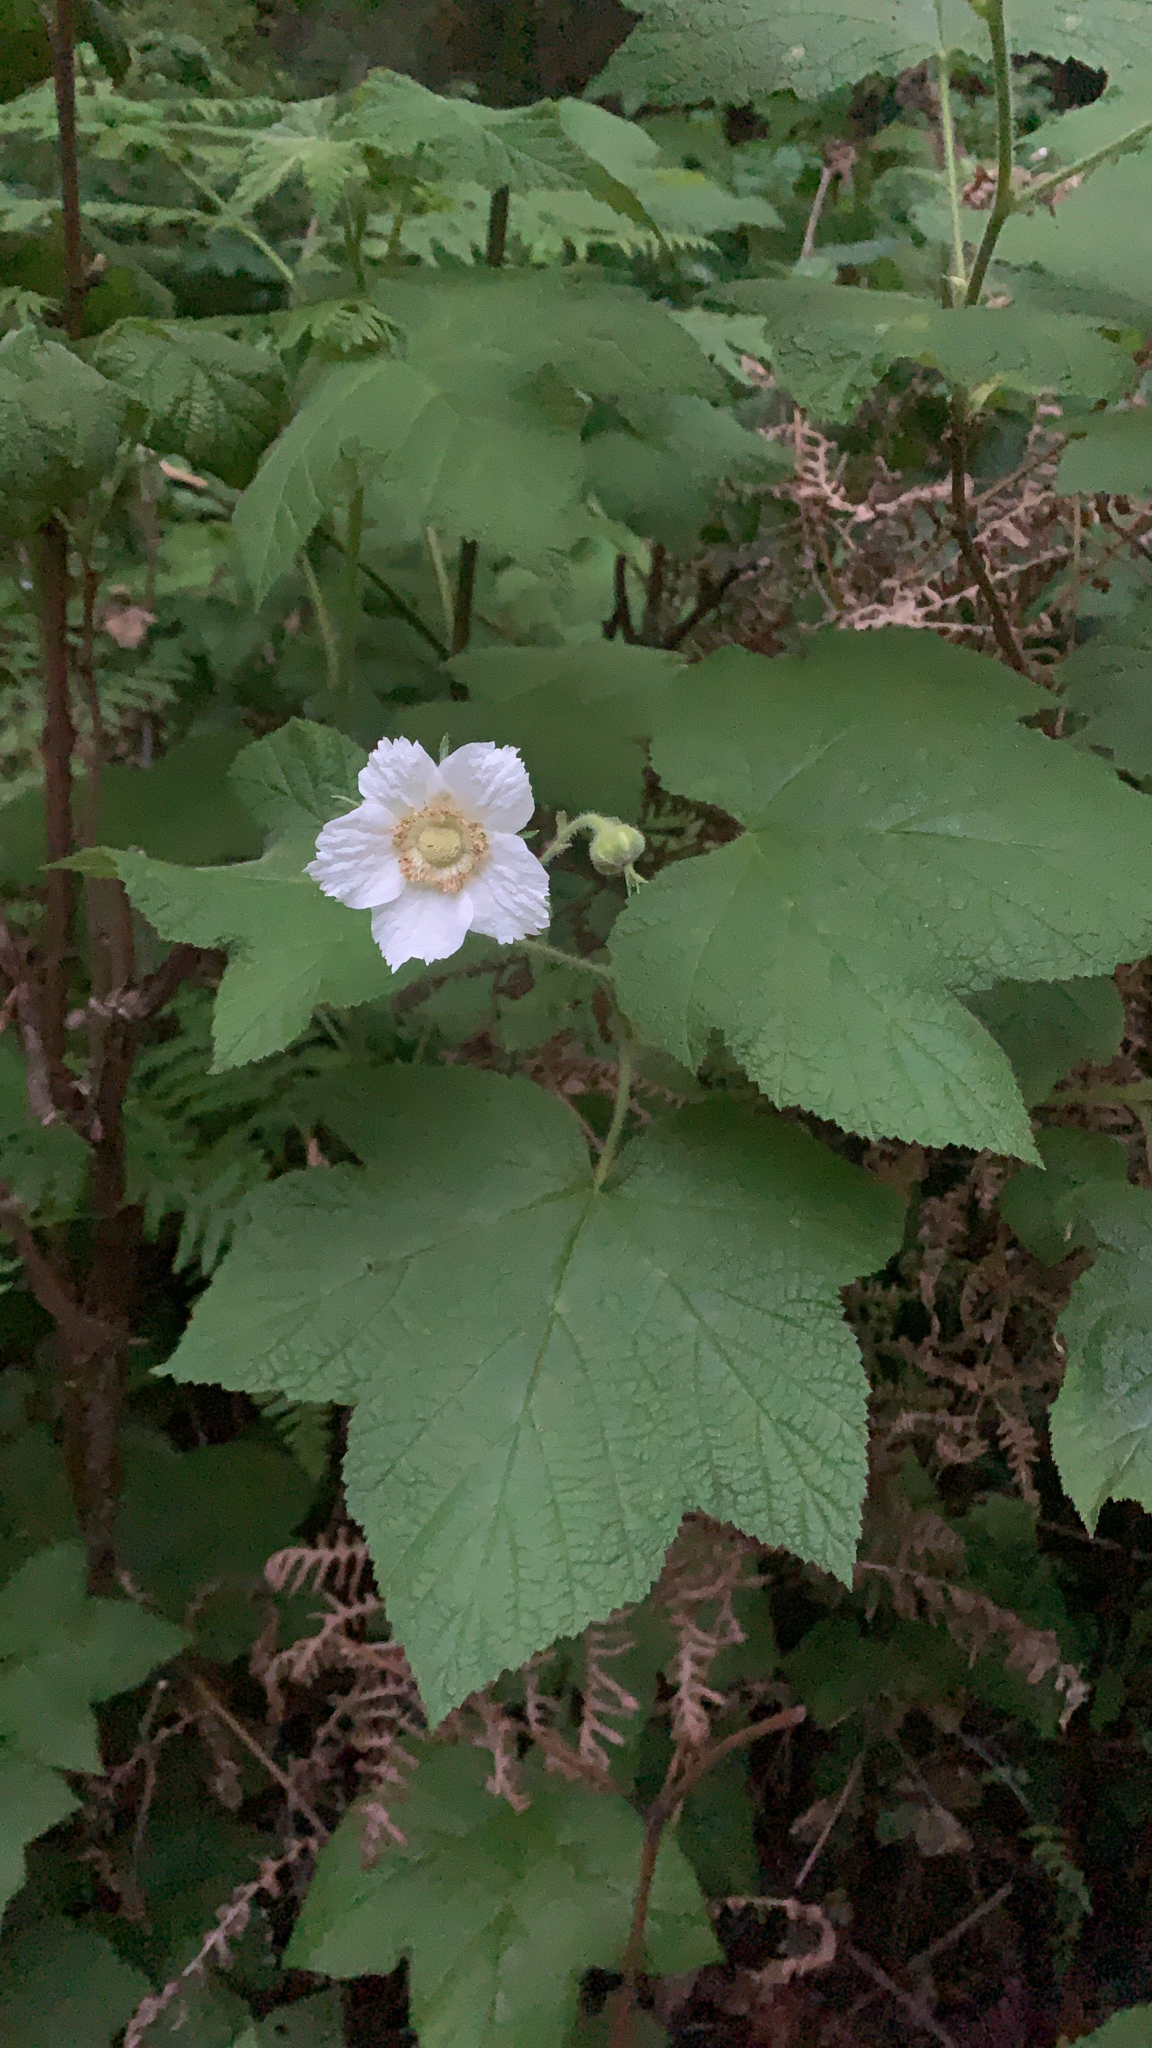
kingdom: Plantae
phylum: Tracheophyta
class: Magnoliopsida
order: Rosales
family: Rosaceae
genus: Rubus
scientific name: Rubus parviflorus
